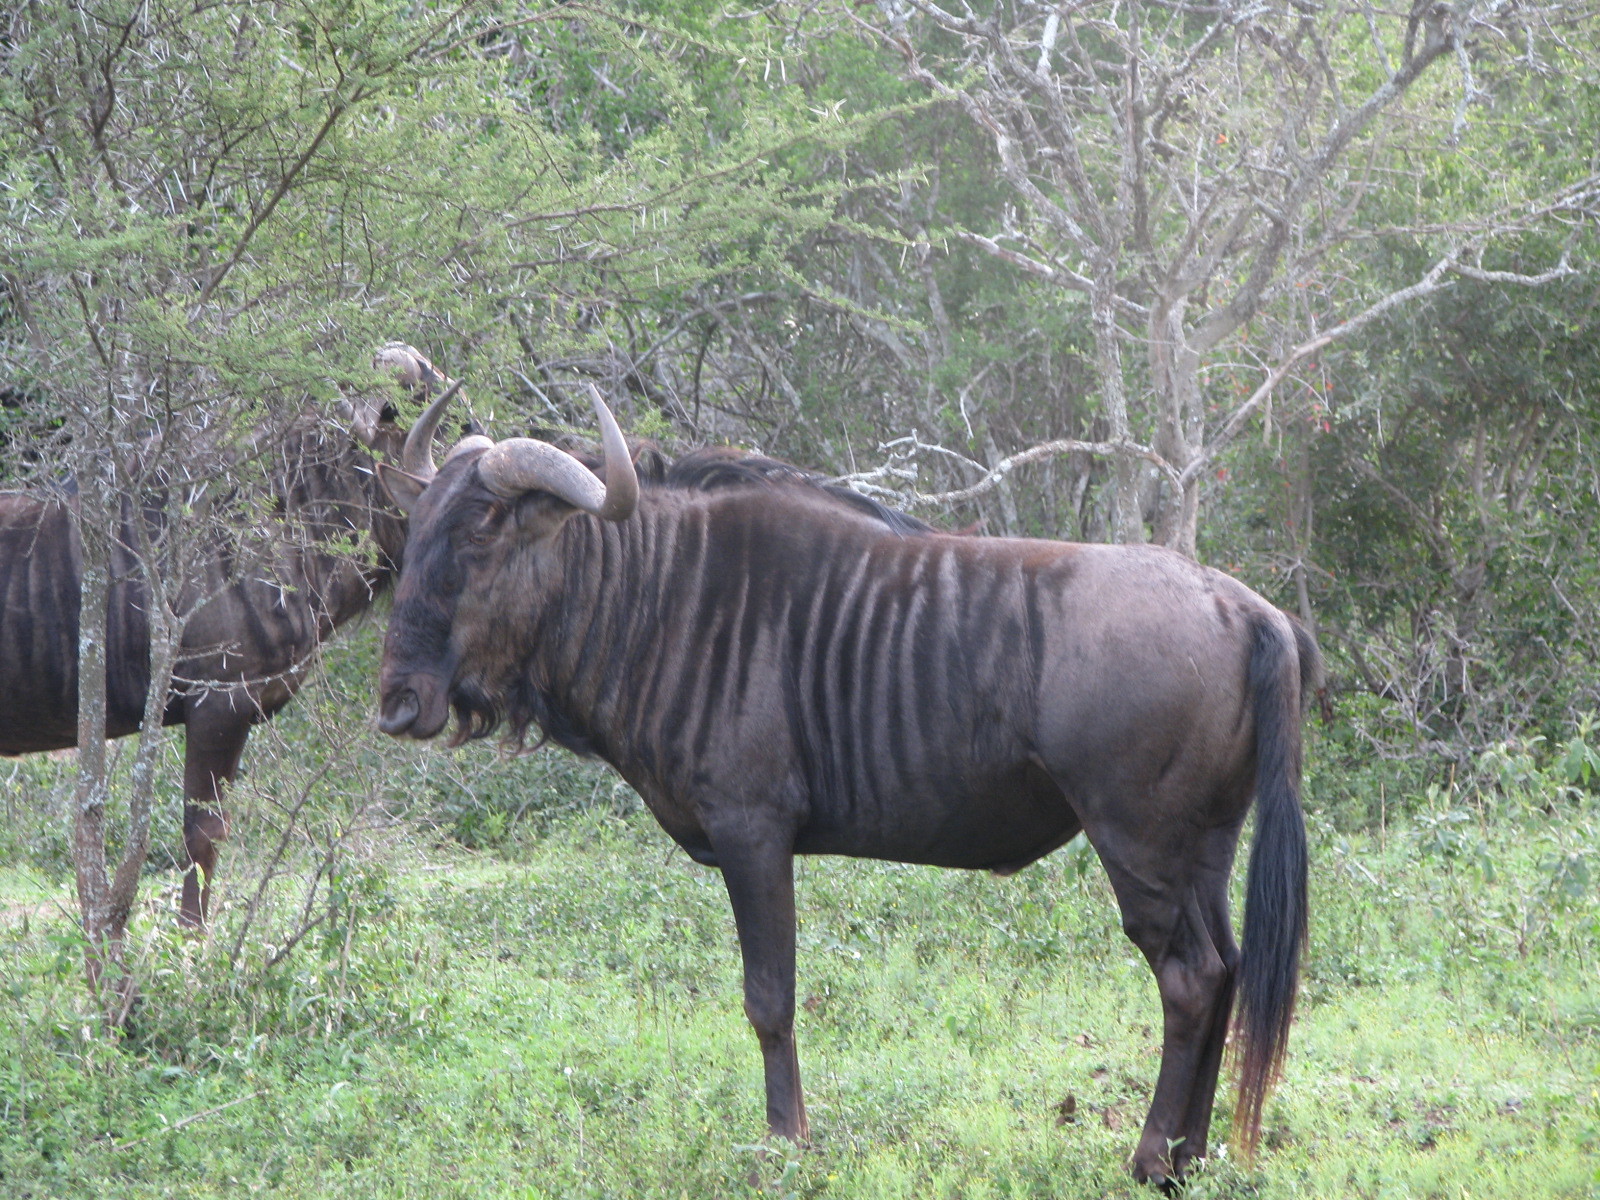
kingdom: Animalia
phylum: Chordata
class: Mammalia
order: Artiodactyla
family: Bovidae
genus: Connochaetes
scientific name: Connochaetes taurinus
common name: Blue wildebeest
